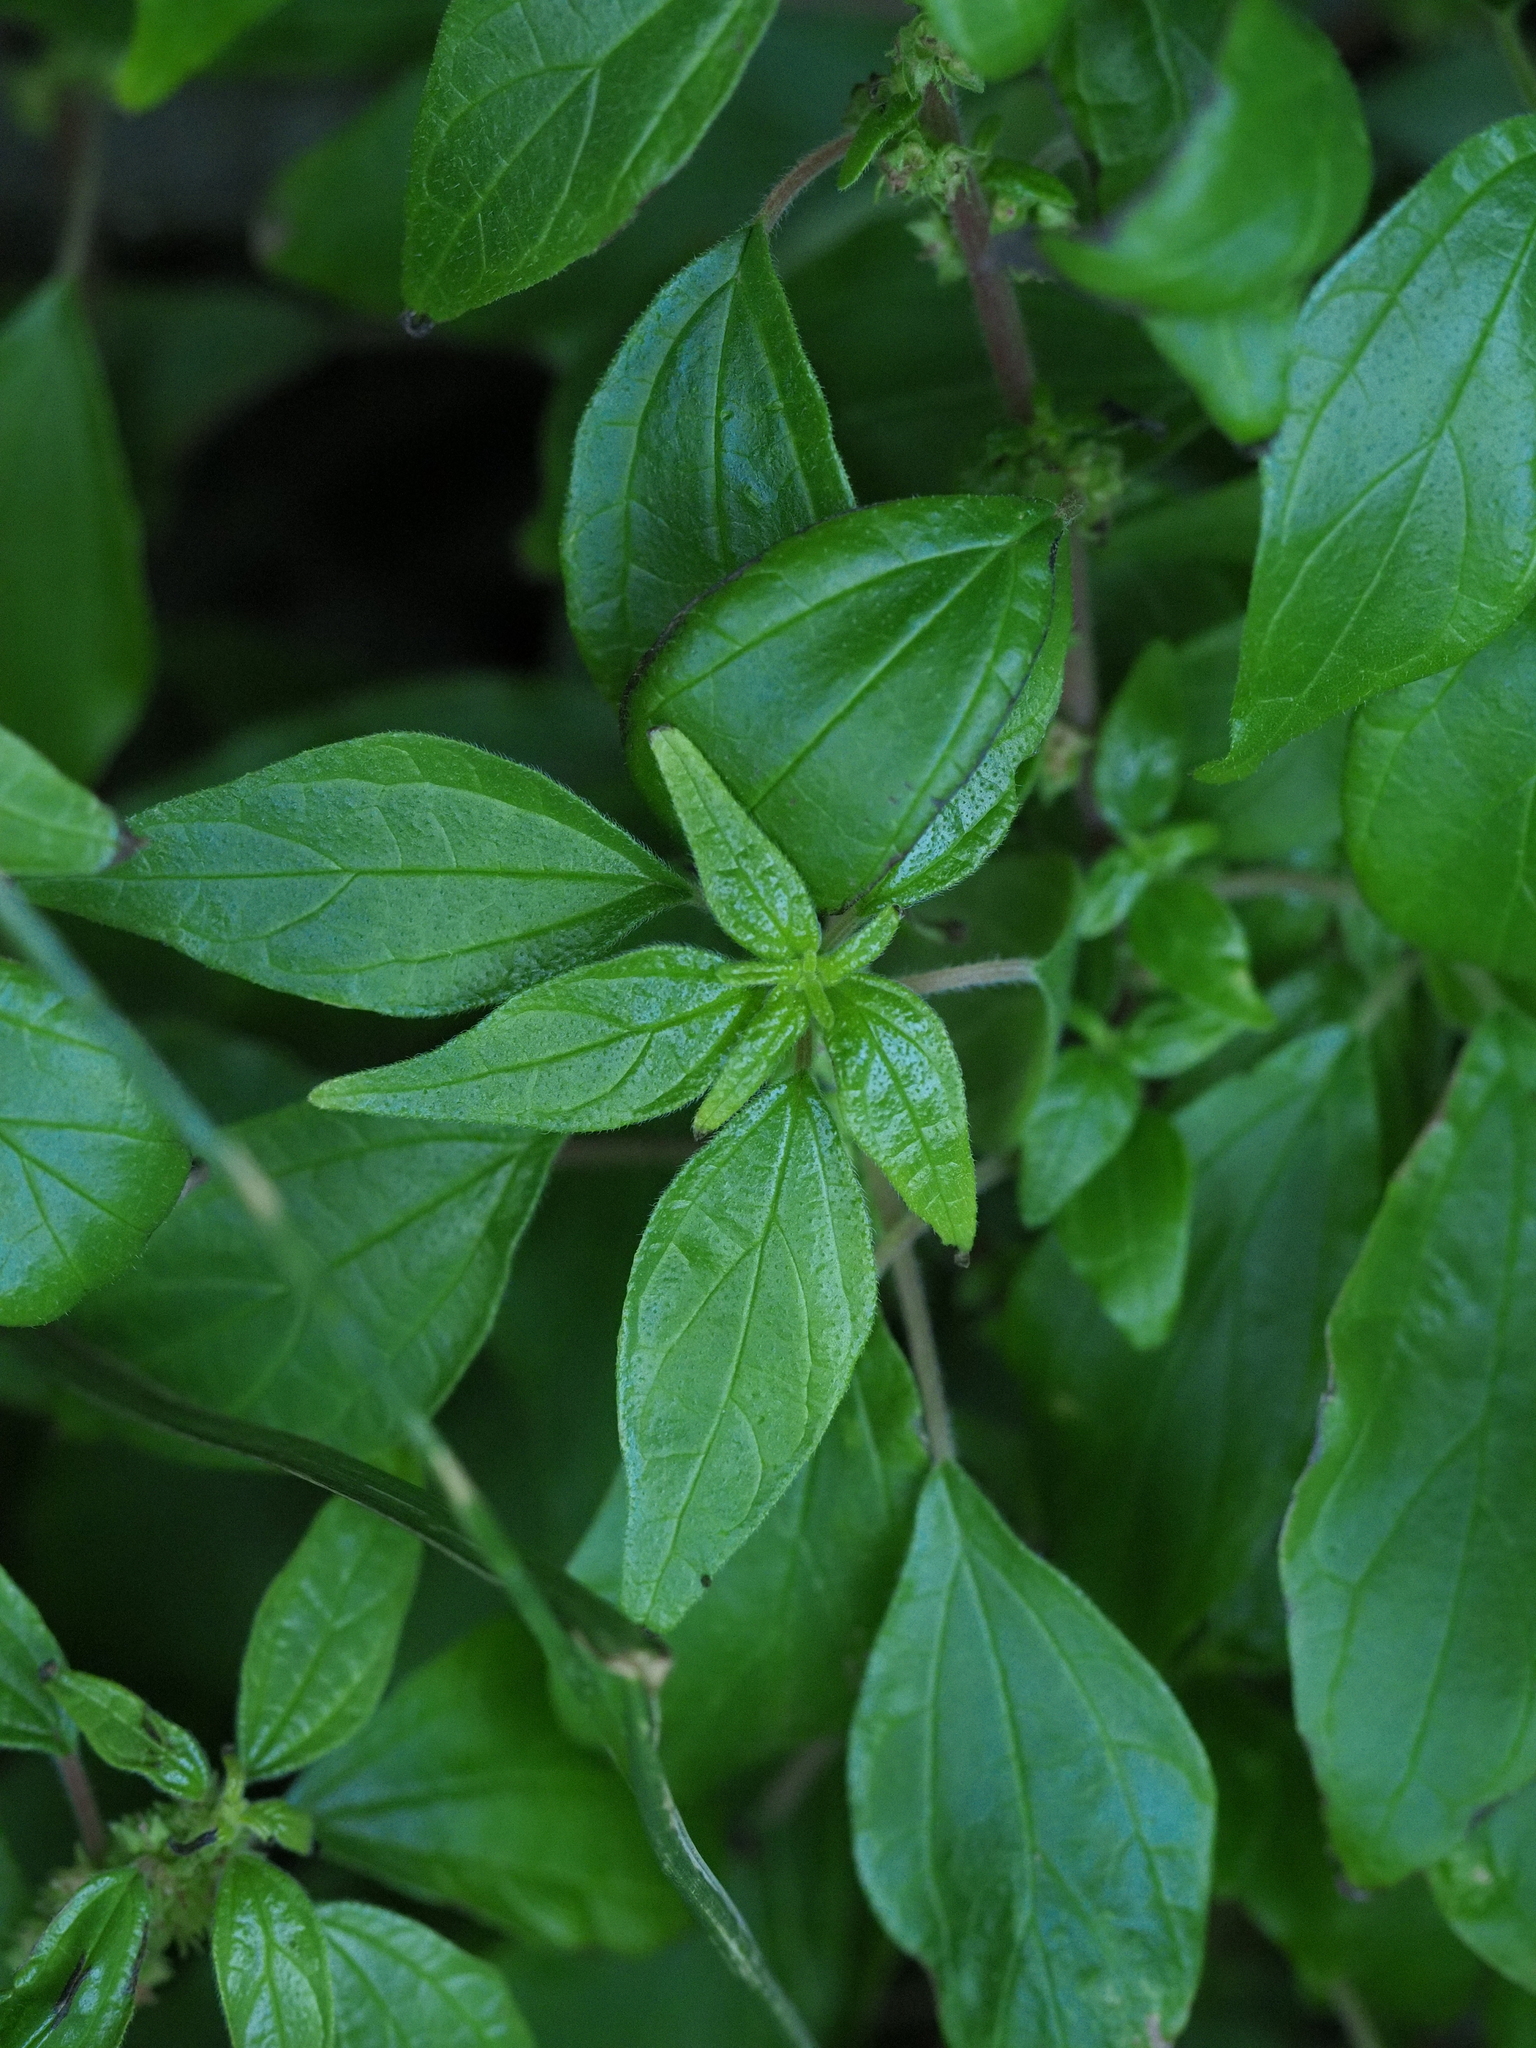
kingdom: Plantae
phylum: Tracheophyta
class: Magnoliopsida
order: Rosales
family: Urticaceae
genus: Parietaria
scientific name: Parietaria debilis
